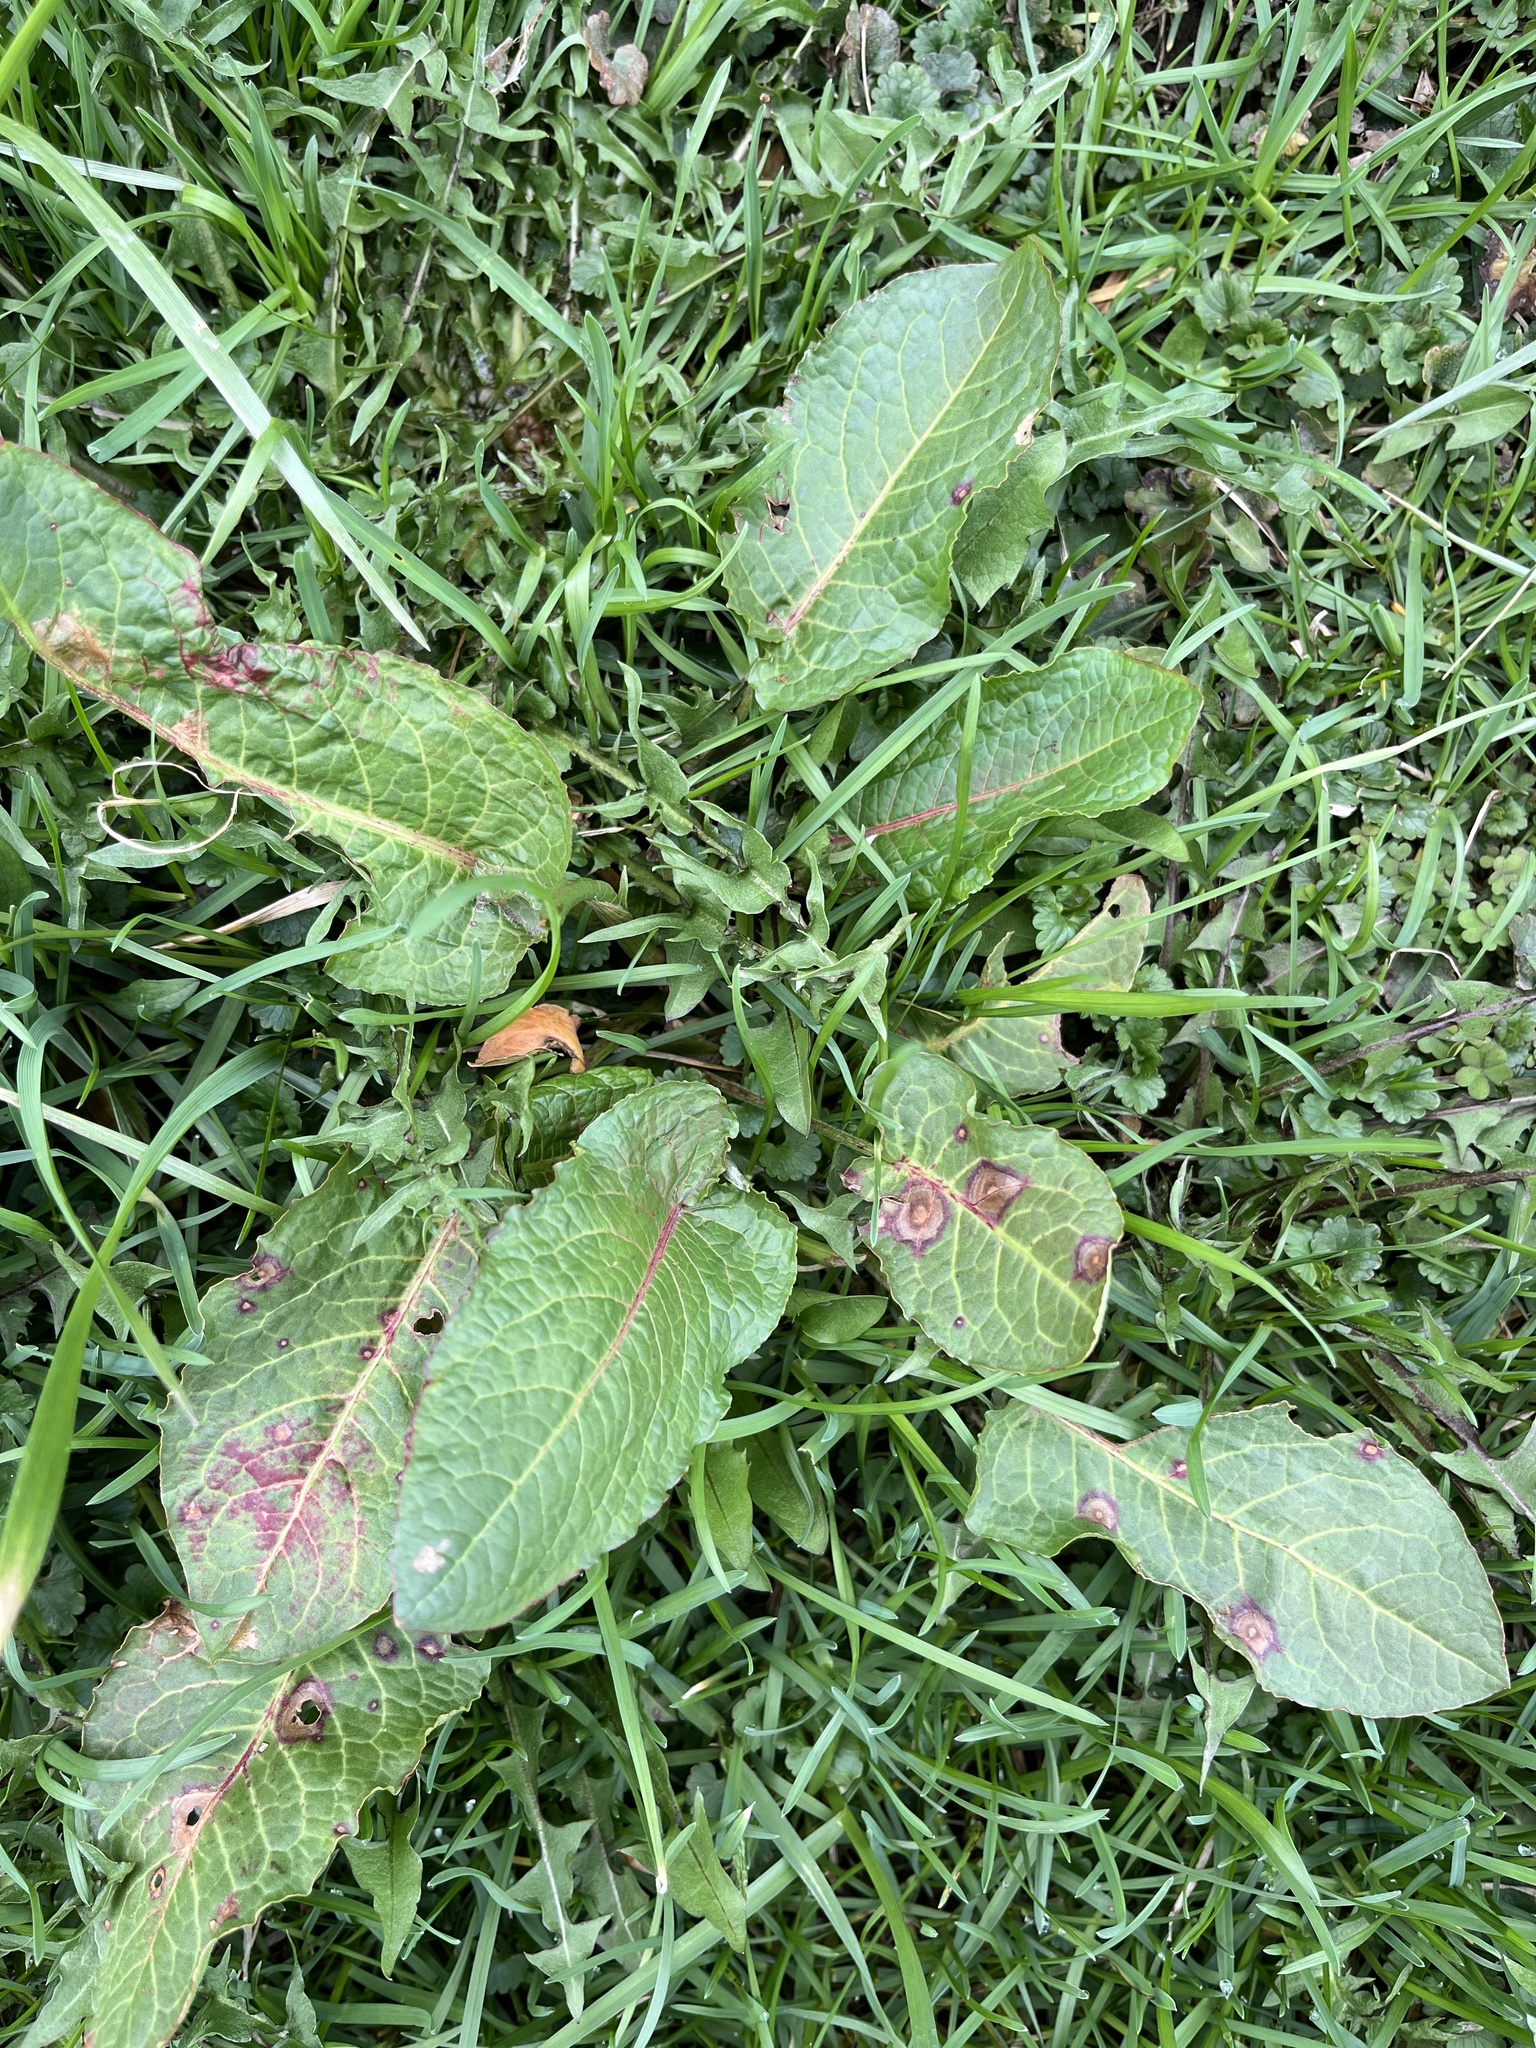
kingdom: Fungi
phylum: Ascomycota
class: Dothideomycetes
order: Mycosphaerellales
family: Mycosphaerellaceae
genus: Ramularia
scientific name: Ramularia rubella
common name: Red dock spot
